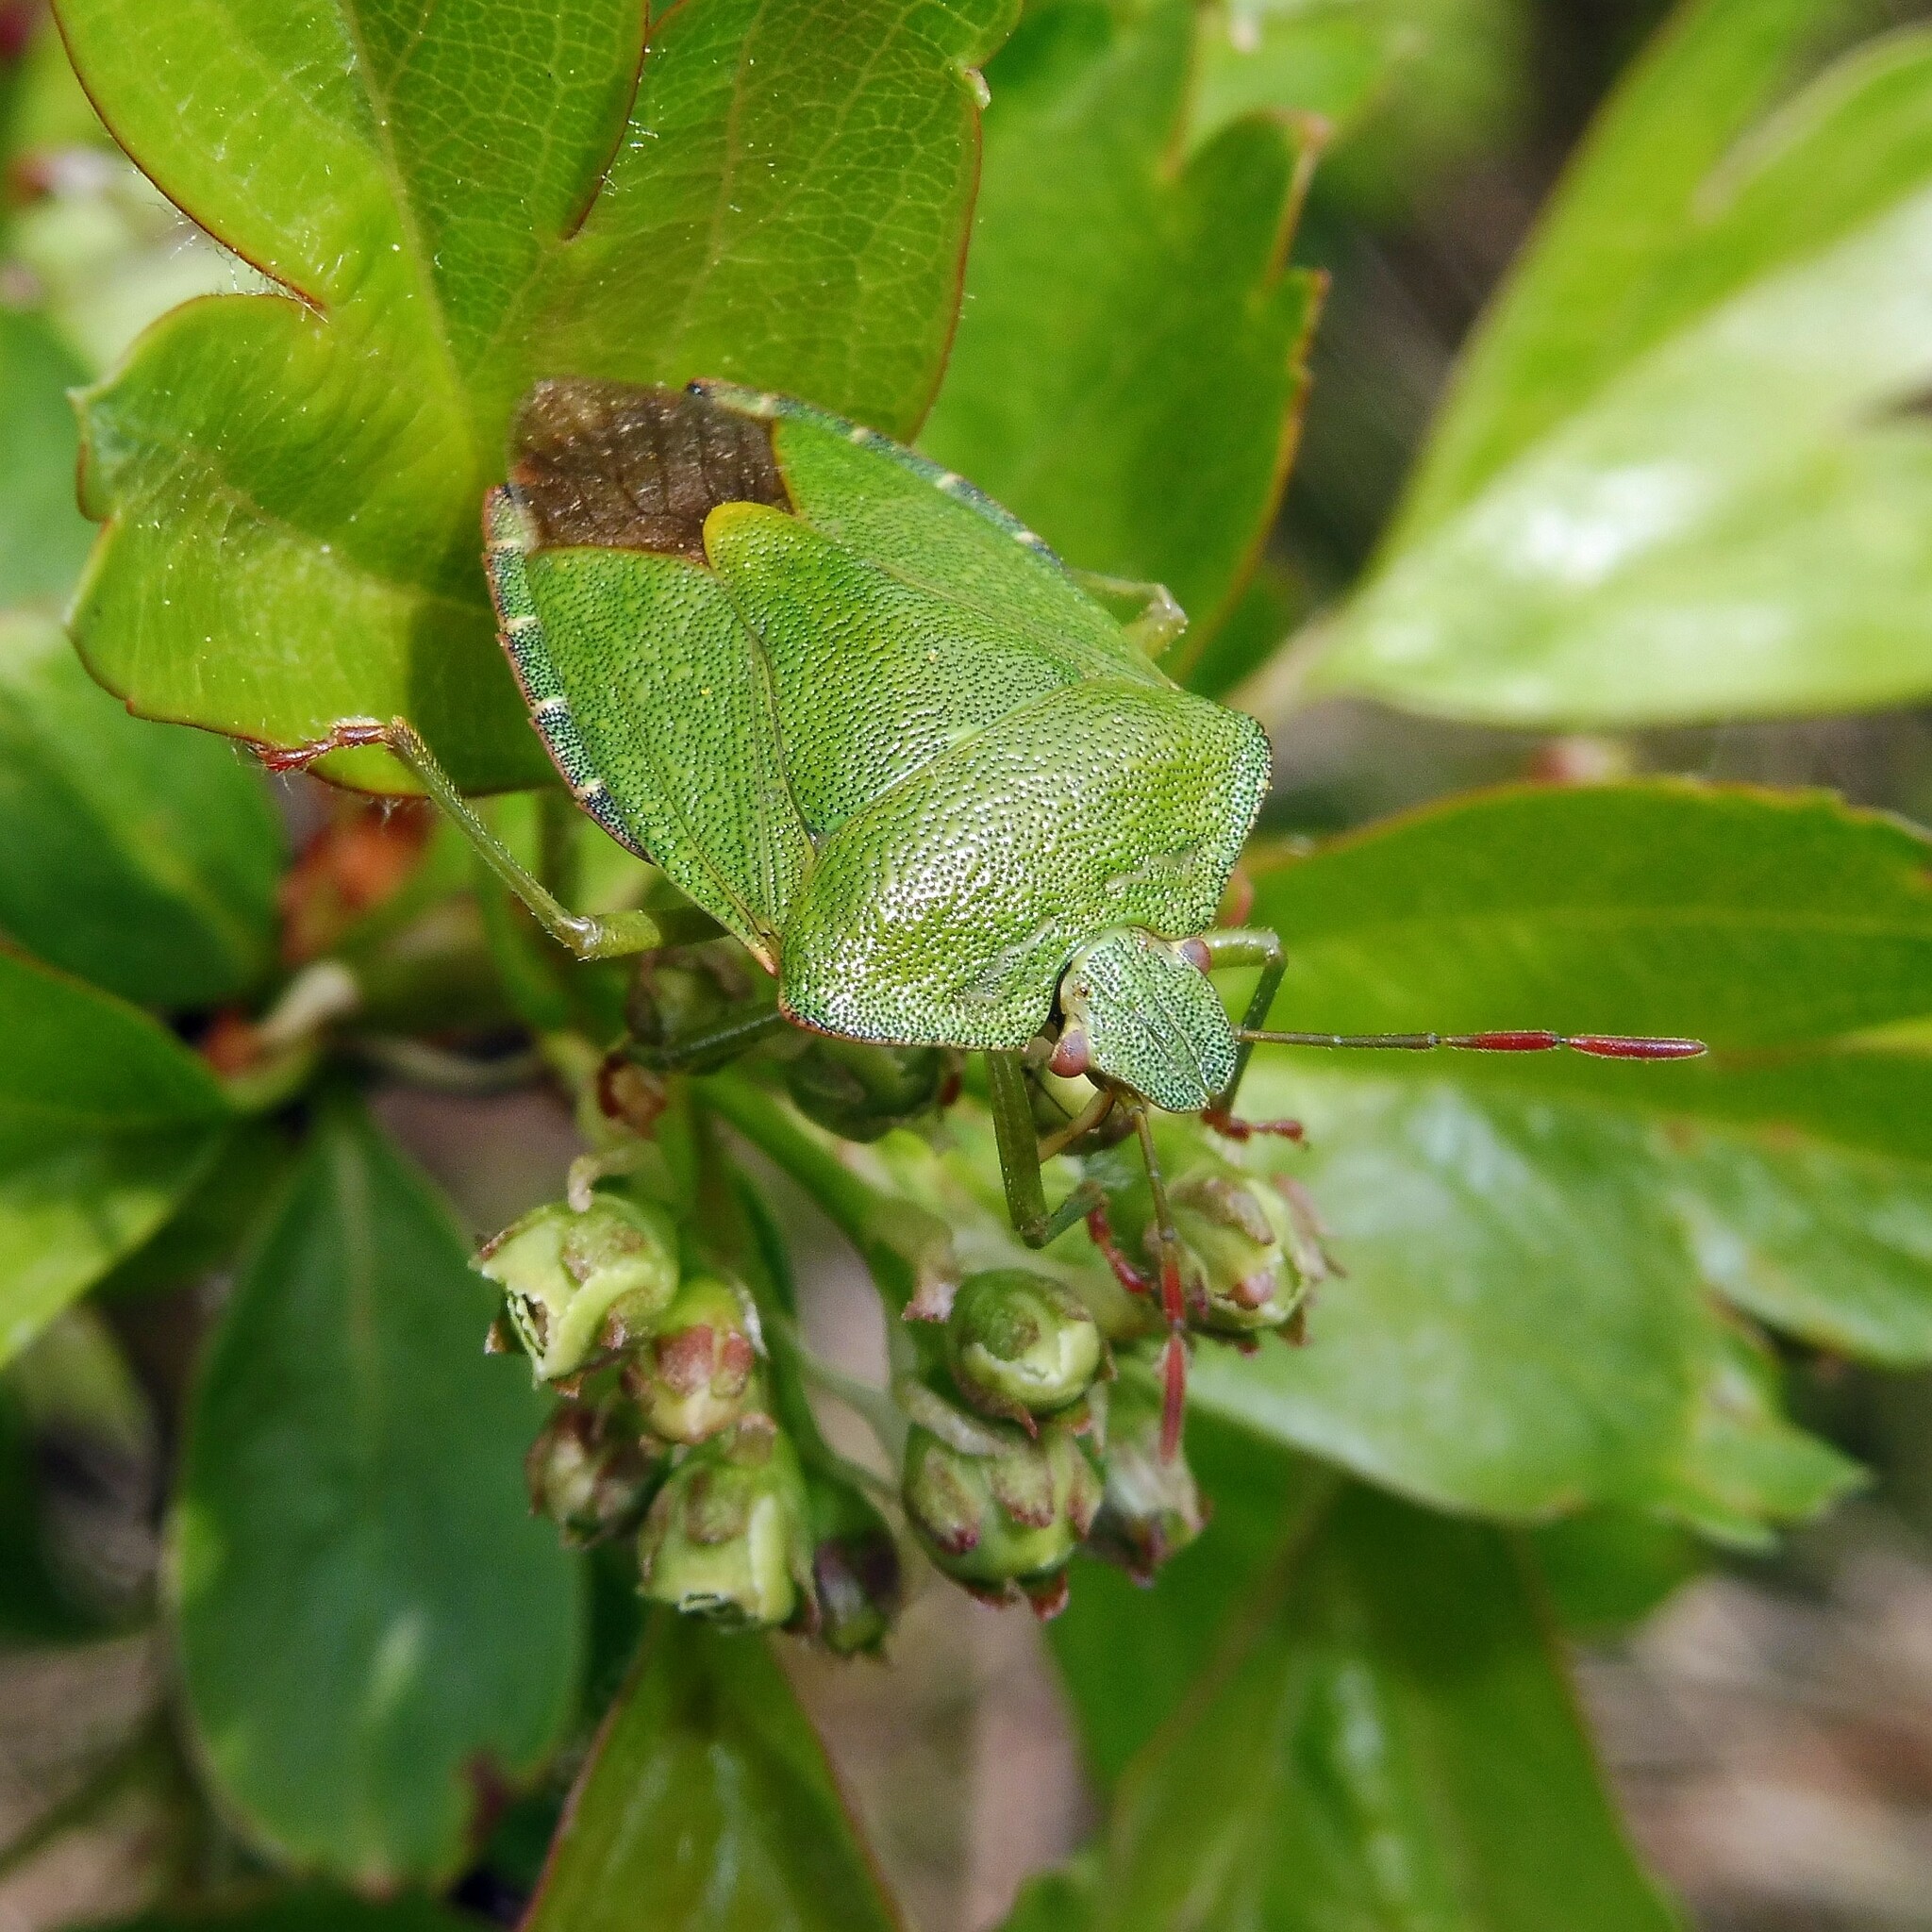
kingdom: Animalia
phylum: Arthropoda
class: Insecta
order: Hemiptera
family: Pentatomidae
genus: Palomena
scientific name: Palomena prasina
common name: Green shieldbug
